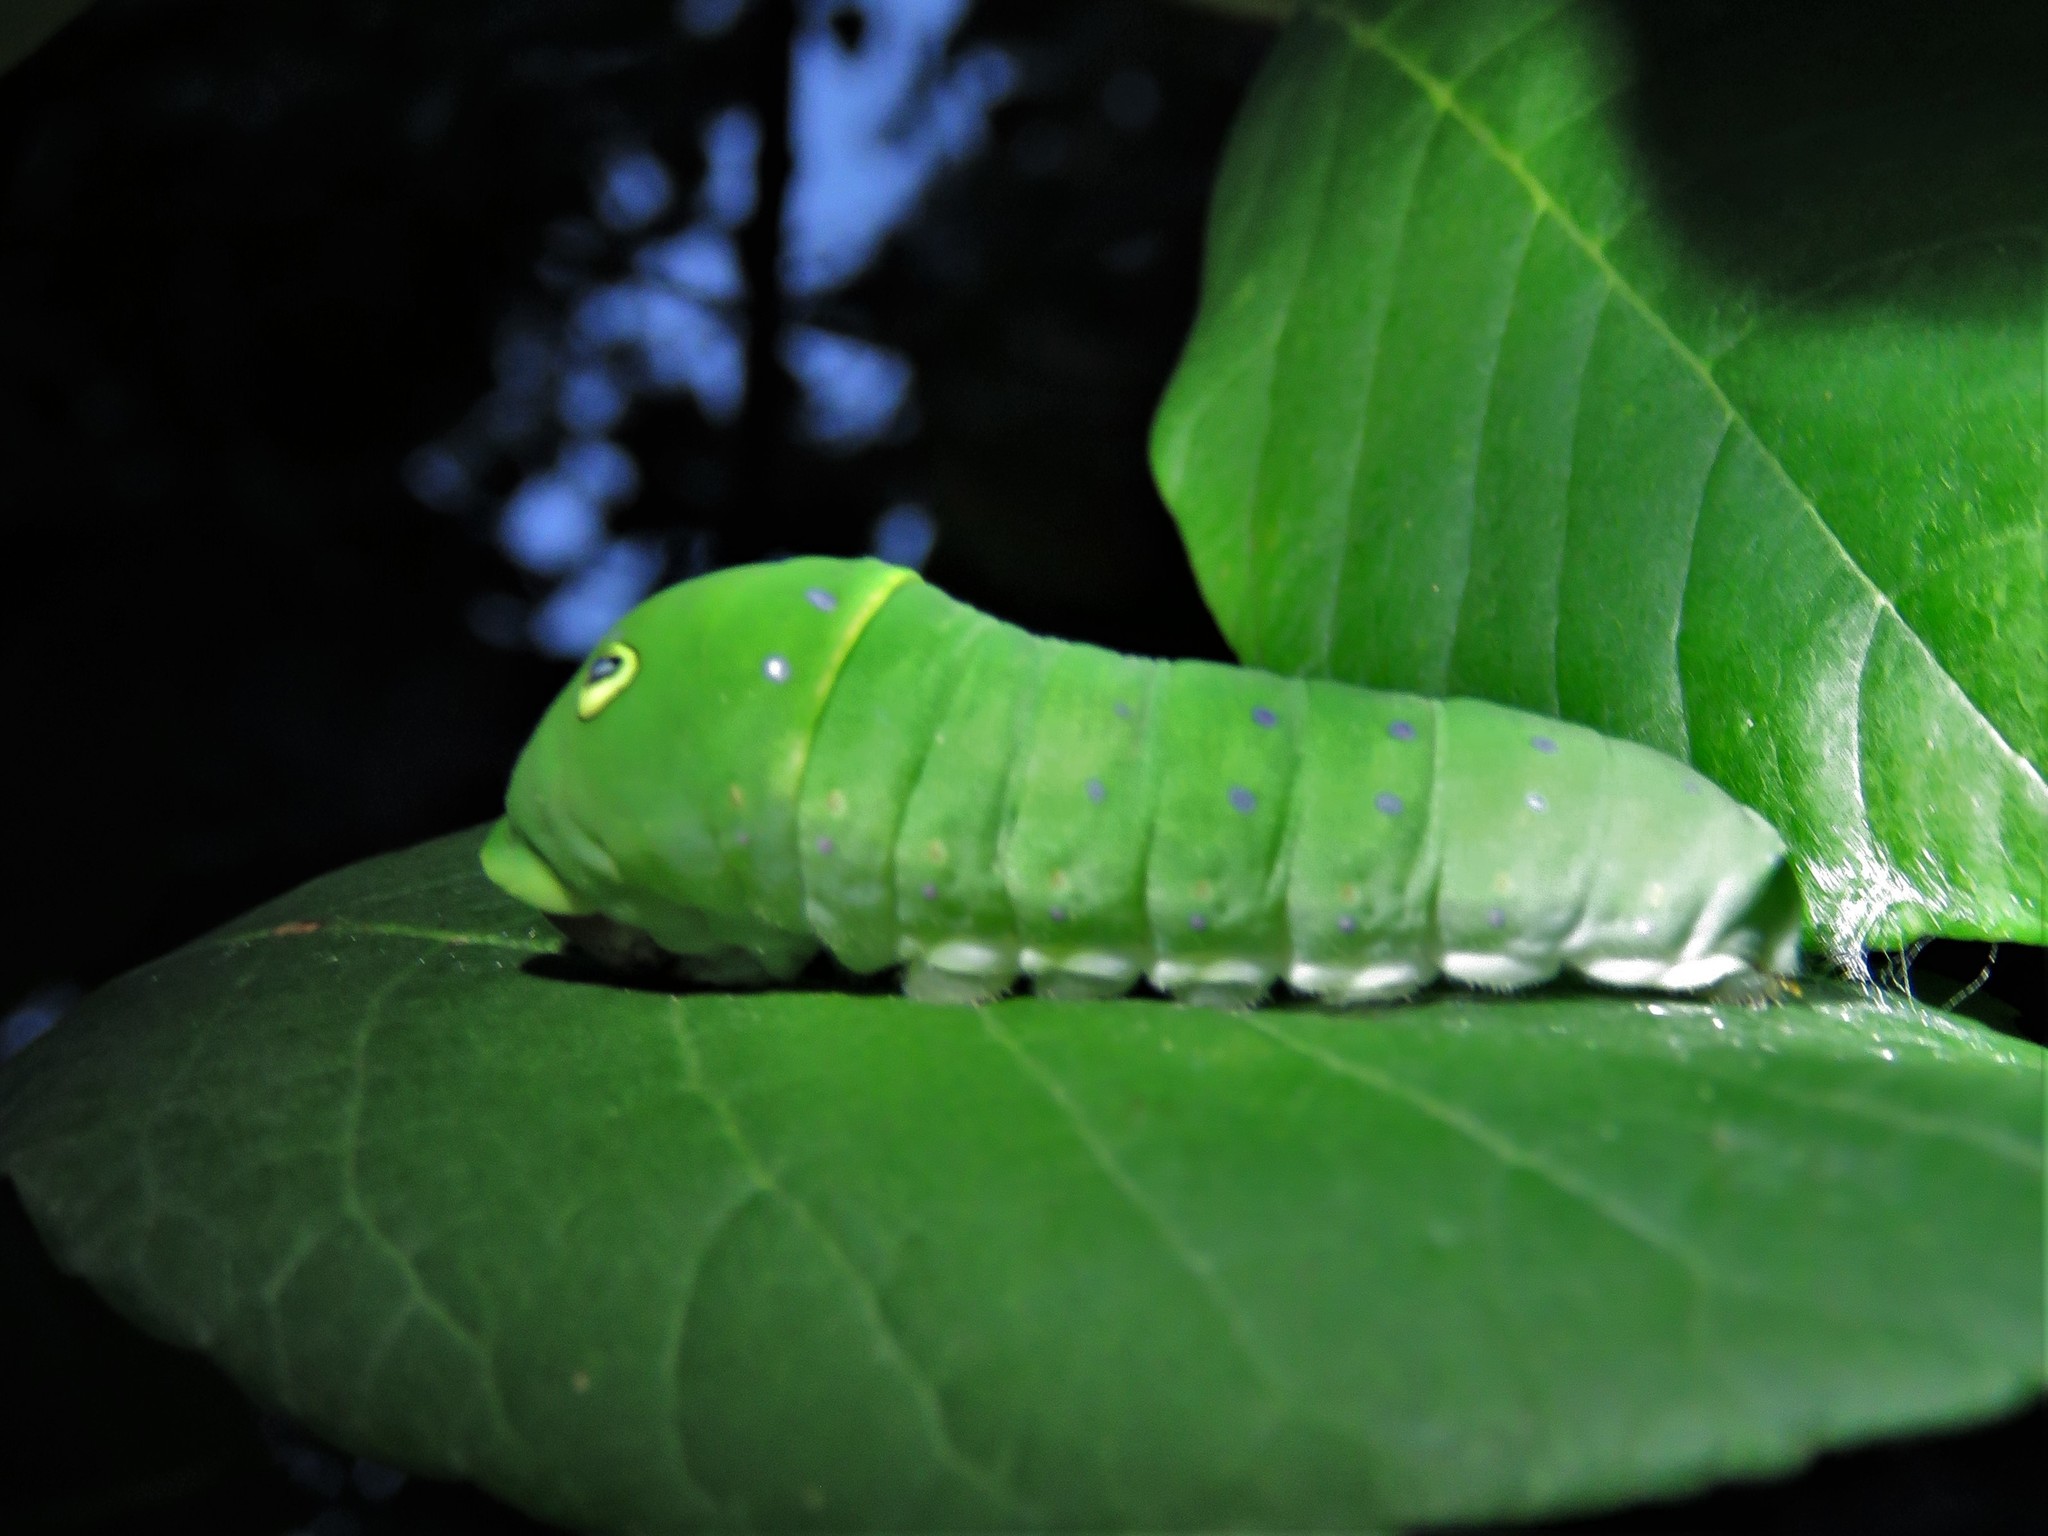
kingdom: Animalia
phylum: Arthropoda
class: Insecta
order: Lepidoptera
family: Papilionidae
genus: Papilio
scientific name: Papilio glaucus
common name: Tiger swallowtail
